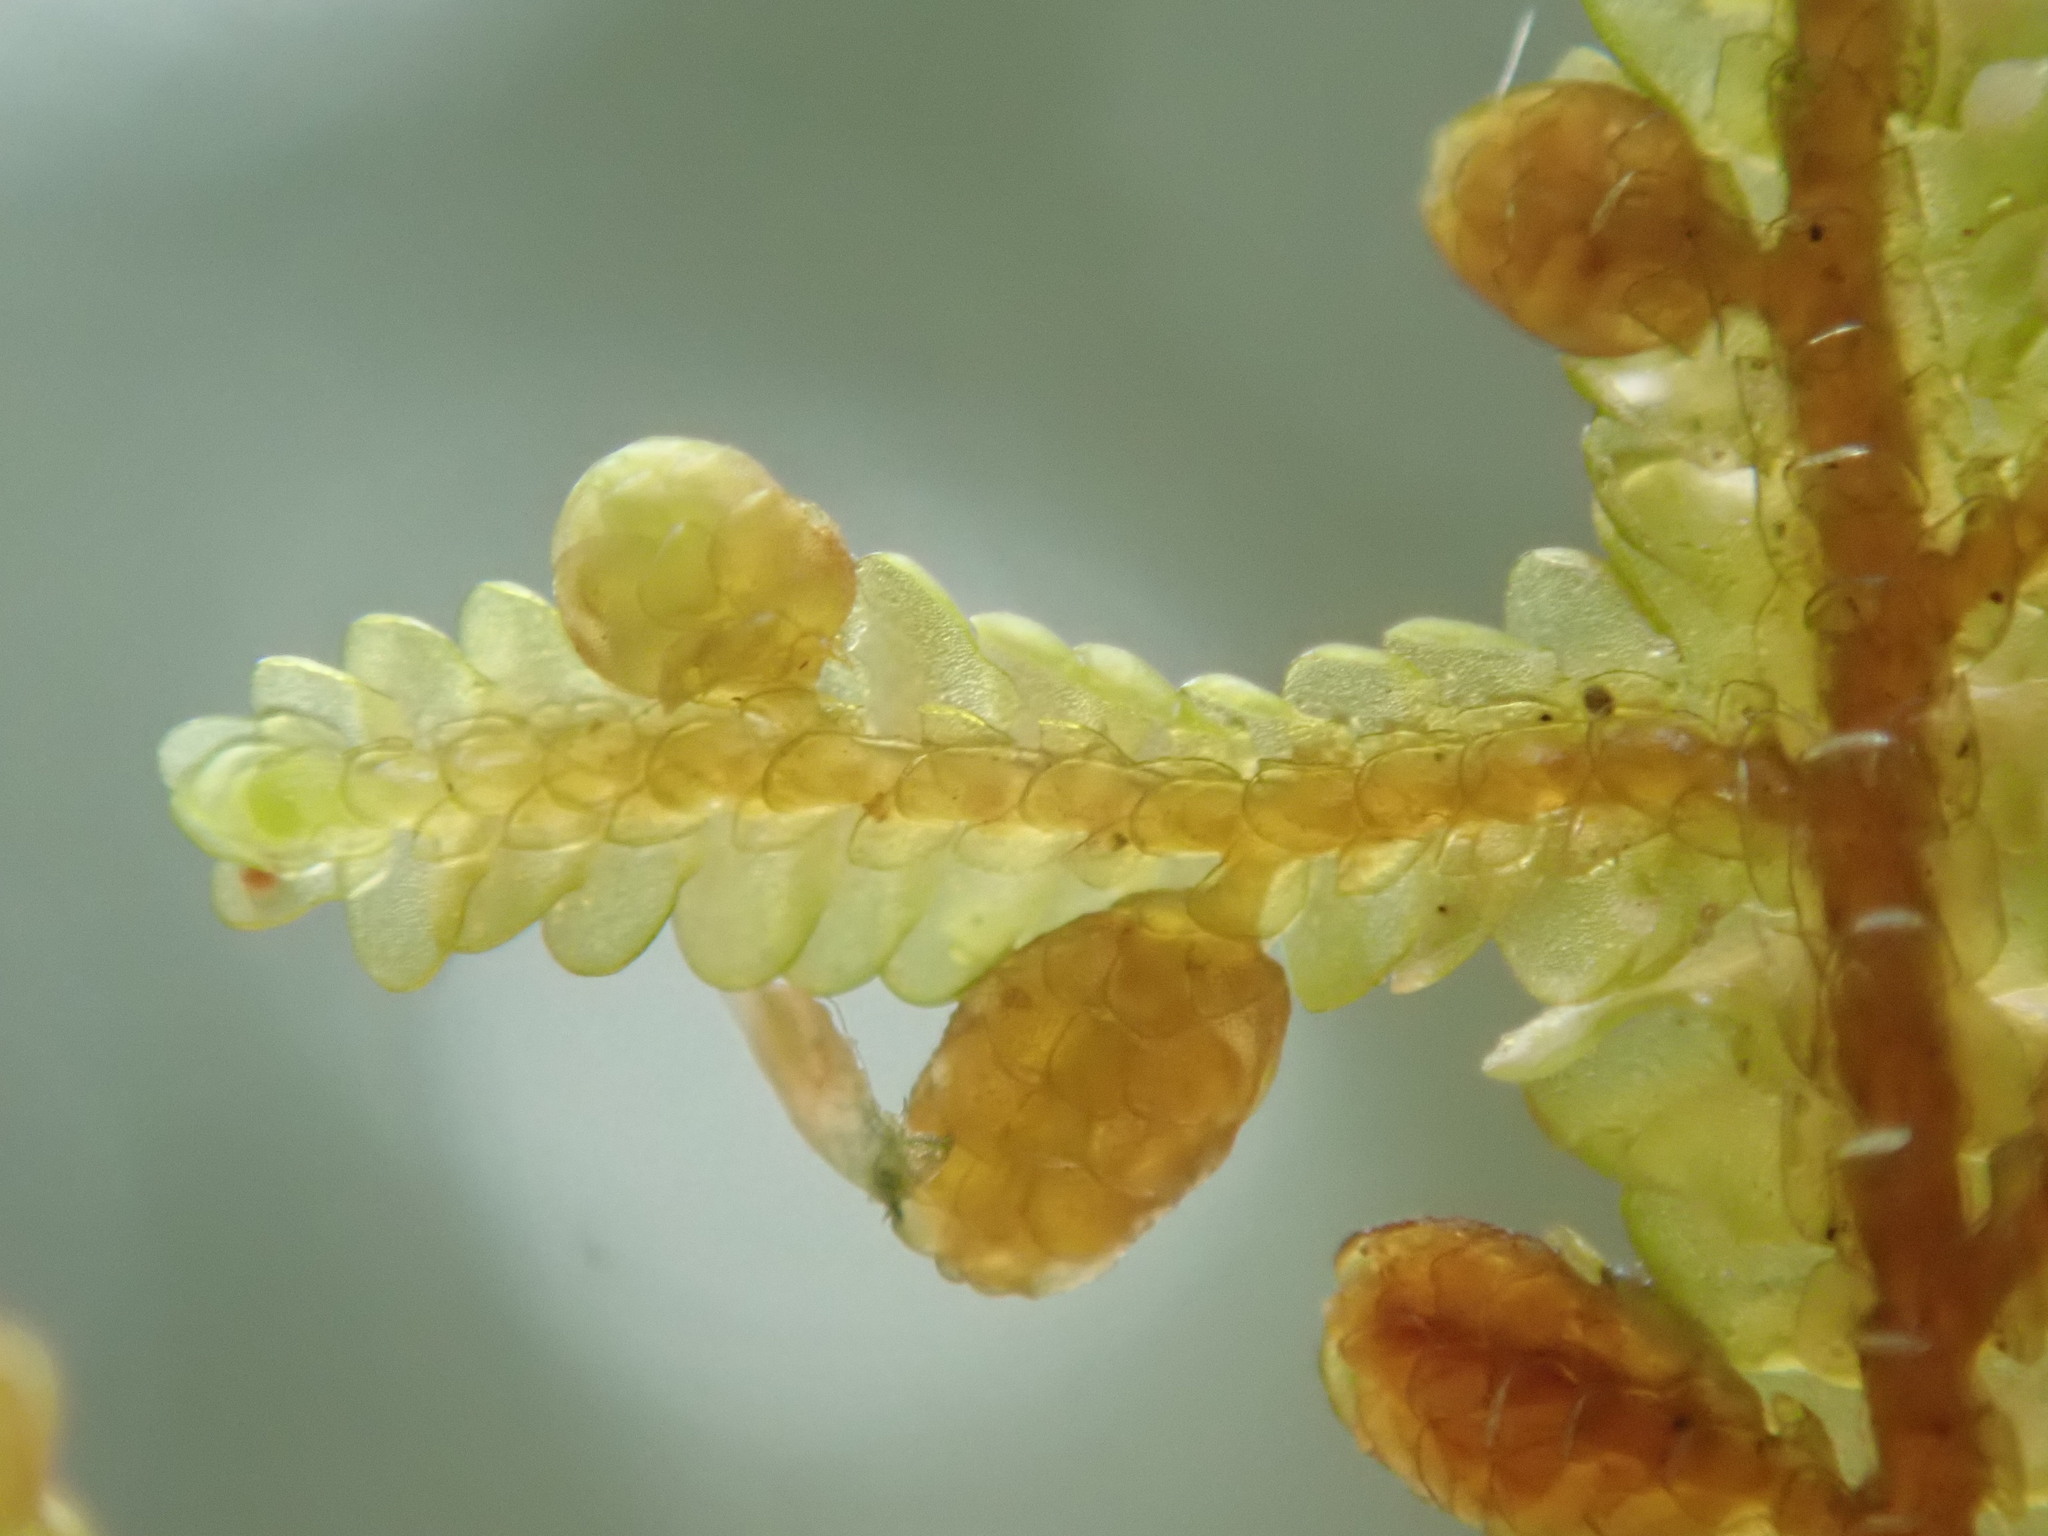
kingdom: Plantae
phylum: Marchantiophyta
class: Jungermanniopsida
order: Porellales
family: Porellaceae
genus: Porella
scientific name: Porella navicularis
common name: Tree ruffle liverwort
